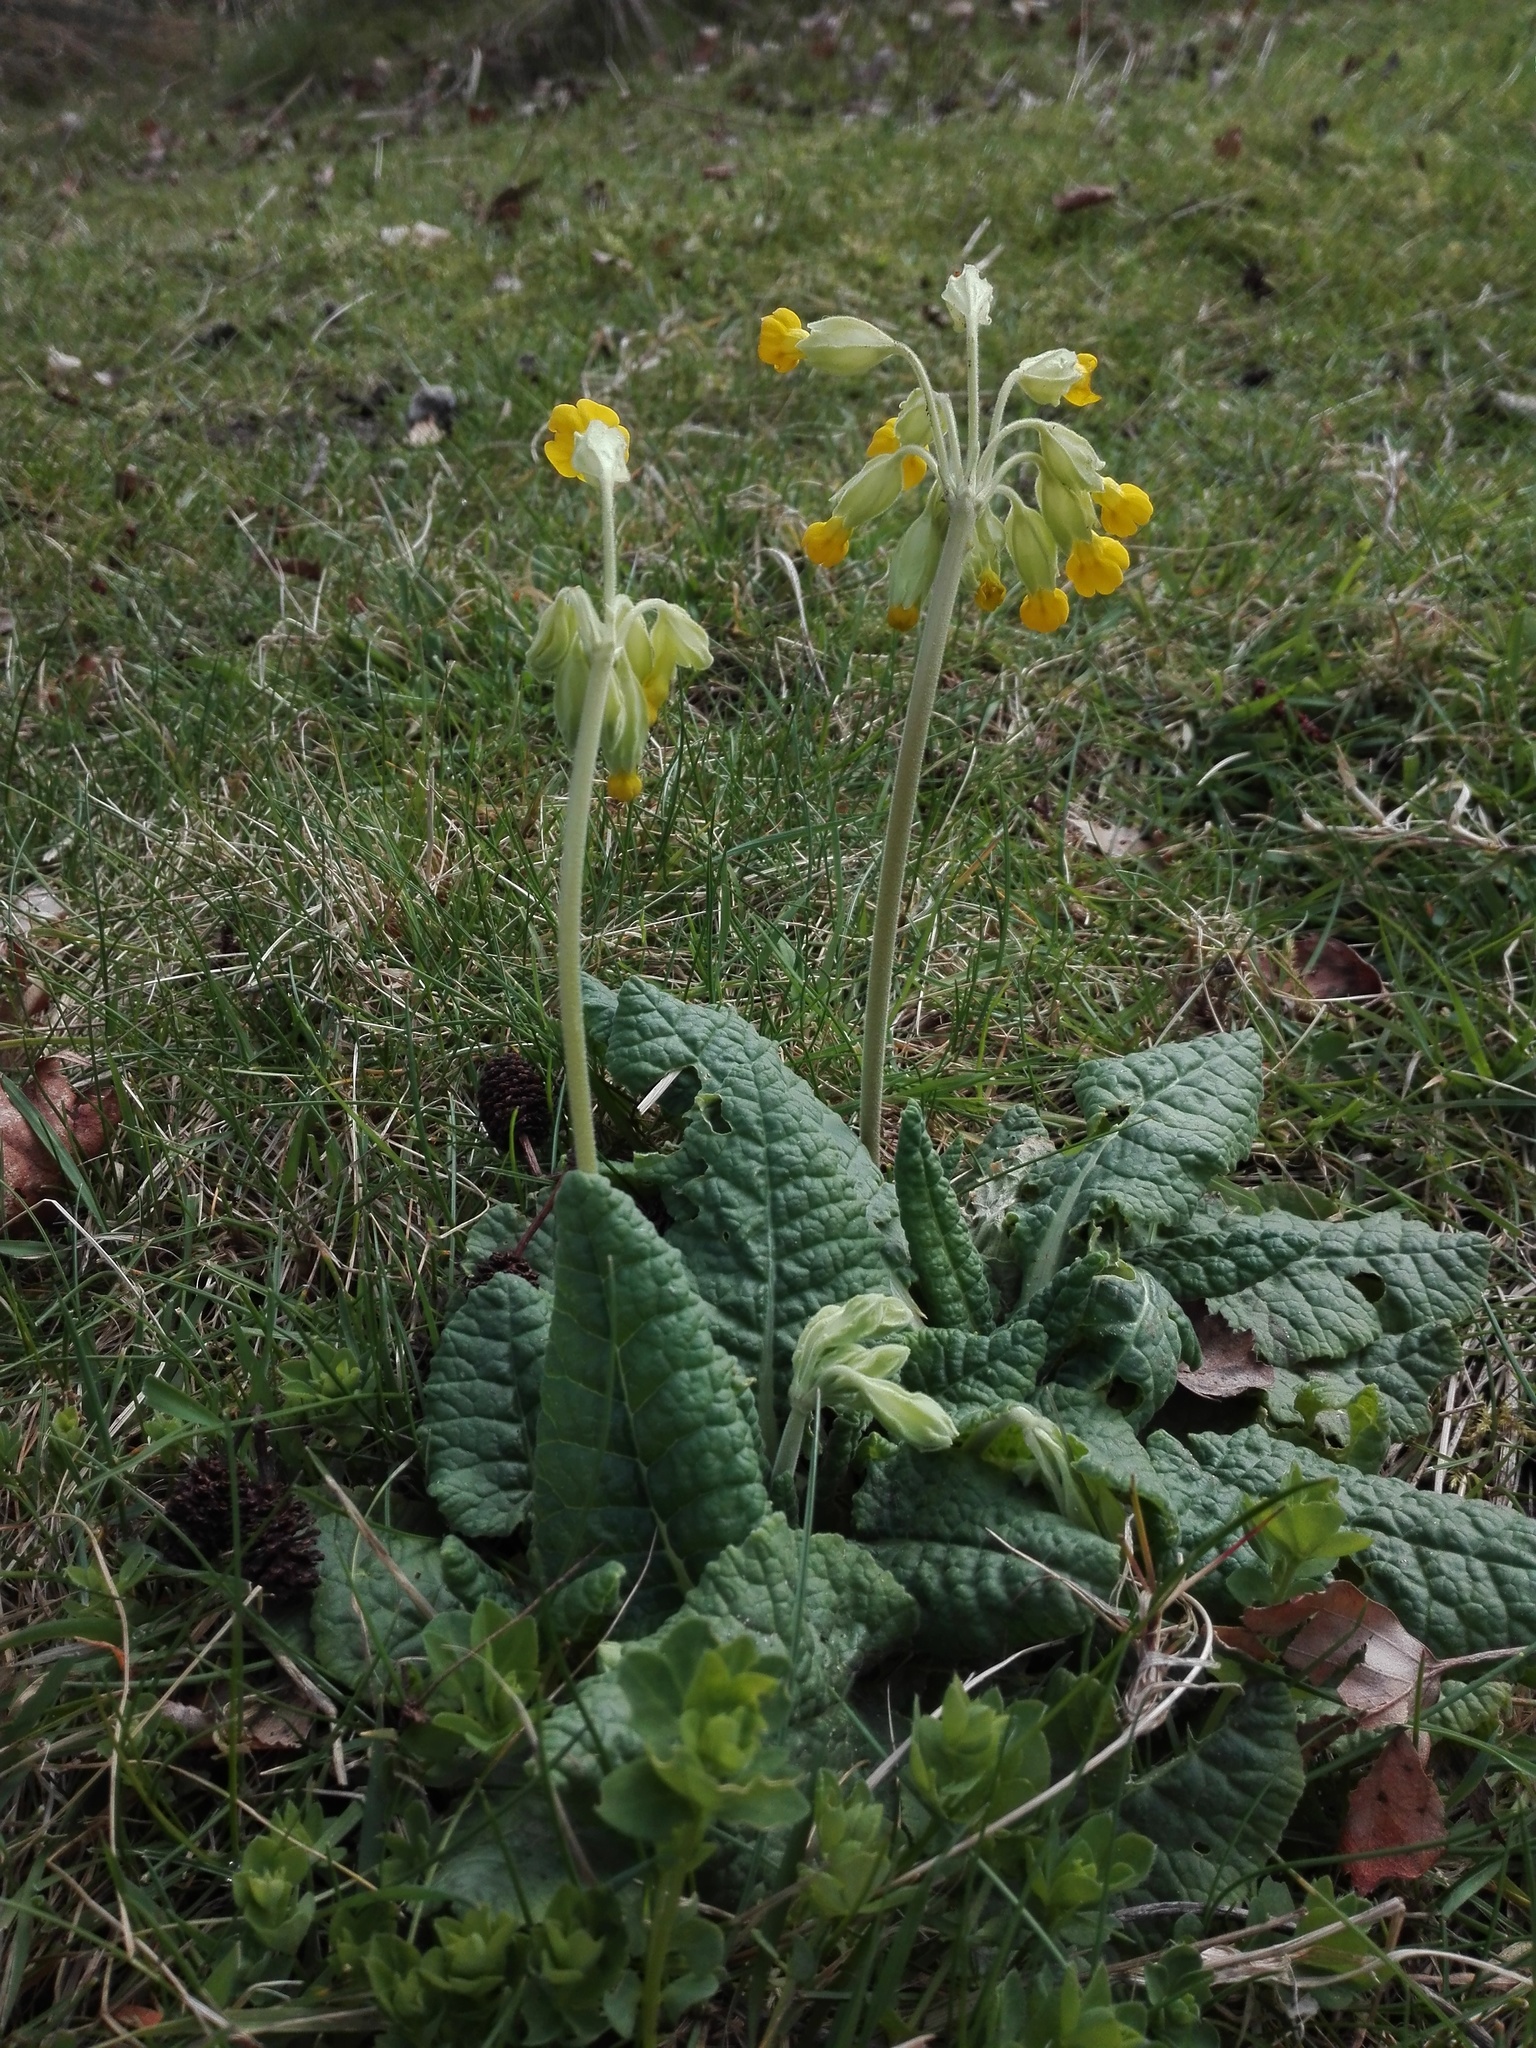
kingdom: Plantae
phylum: Tracheophyta
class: Magnoliopsida
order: Ericales
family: Primulaceae
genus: Primula
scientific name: Primula veris
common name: Cowslip
